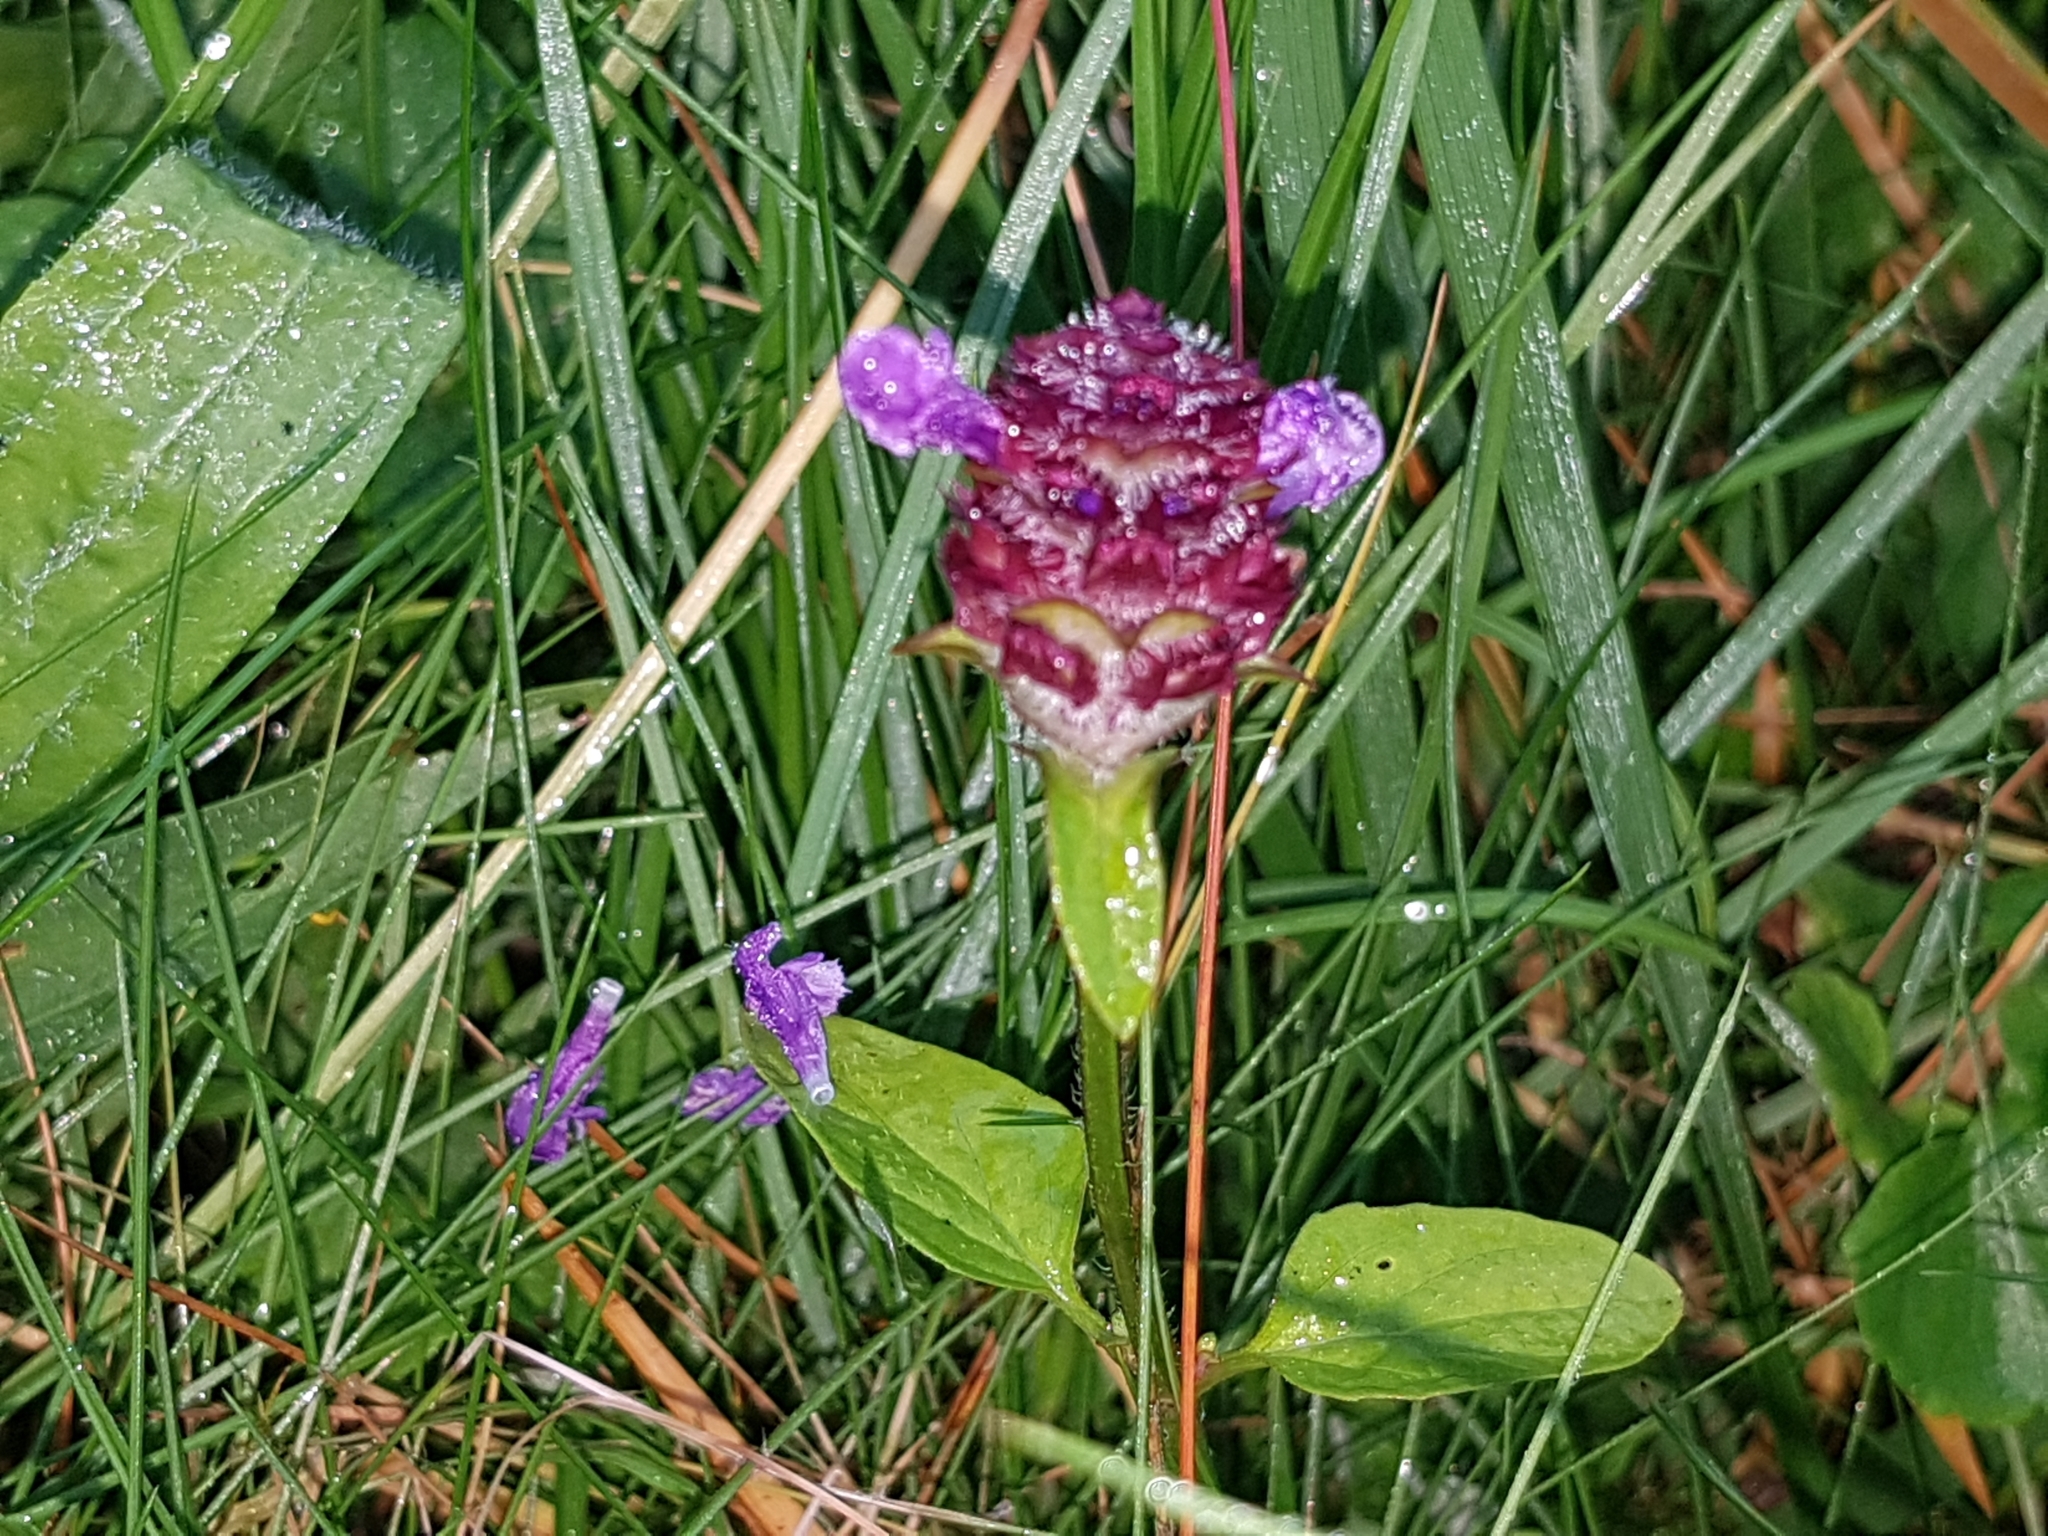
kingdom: Plantae
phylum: Tracheophyta
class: Magnoliopsida
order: Lamiales
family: Lamiaceae
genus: Prunella
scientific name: Prunella vulgaris
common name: Heal-all
